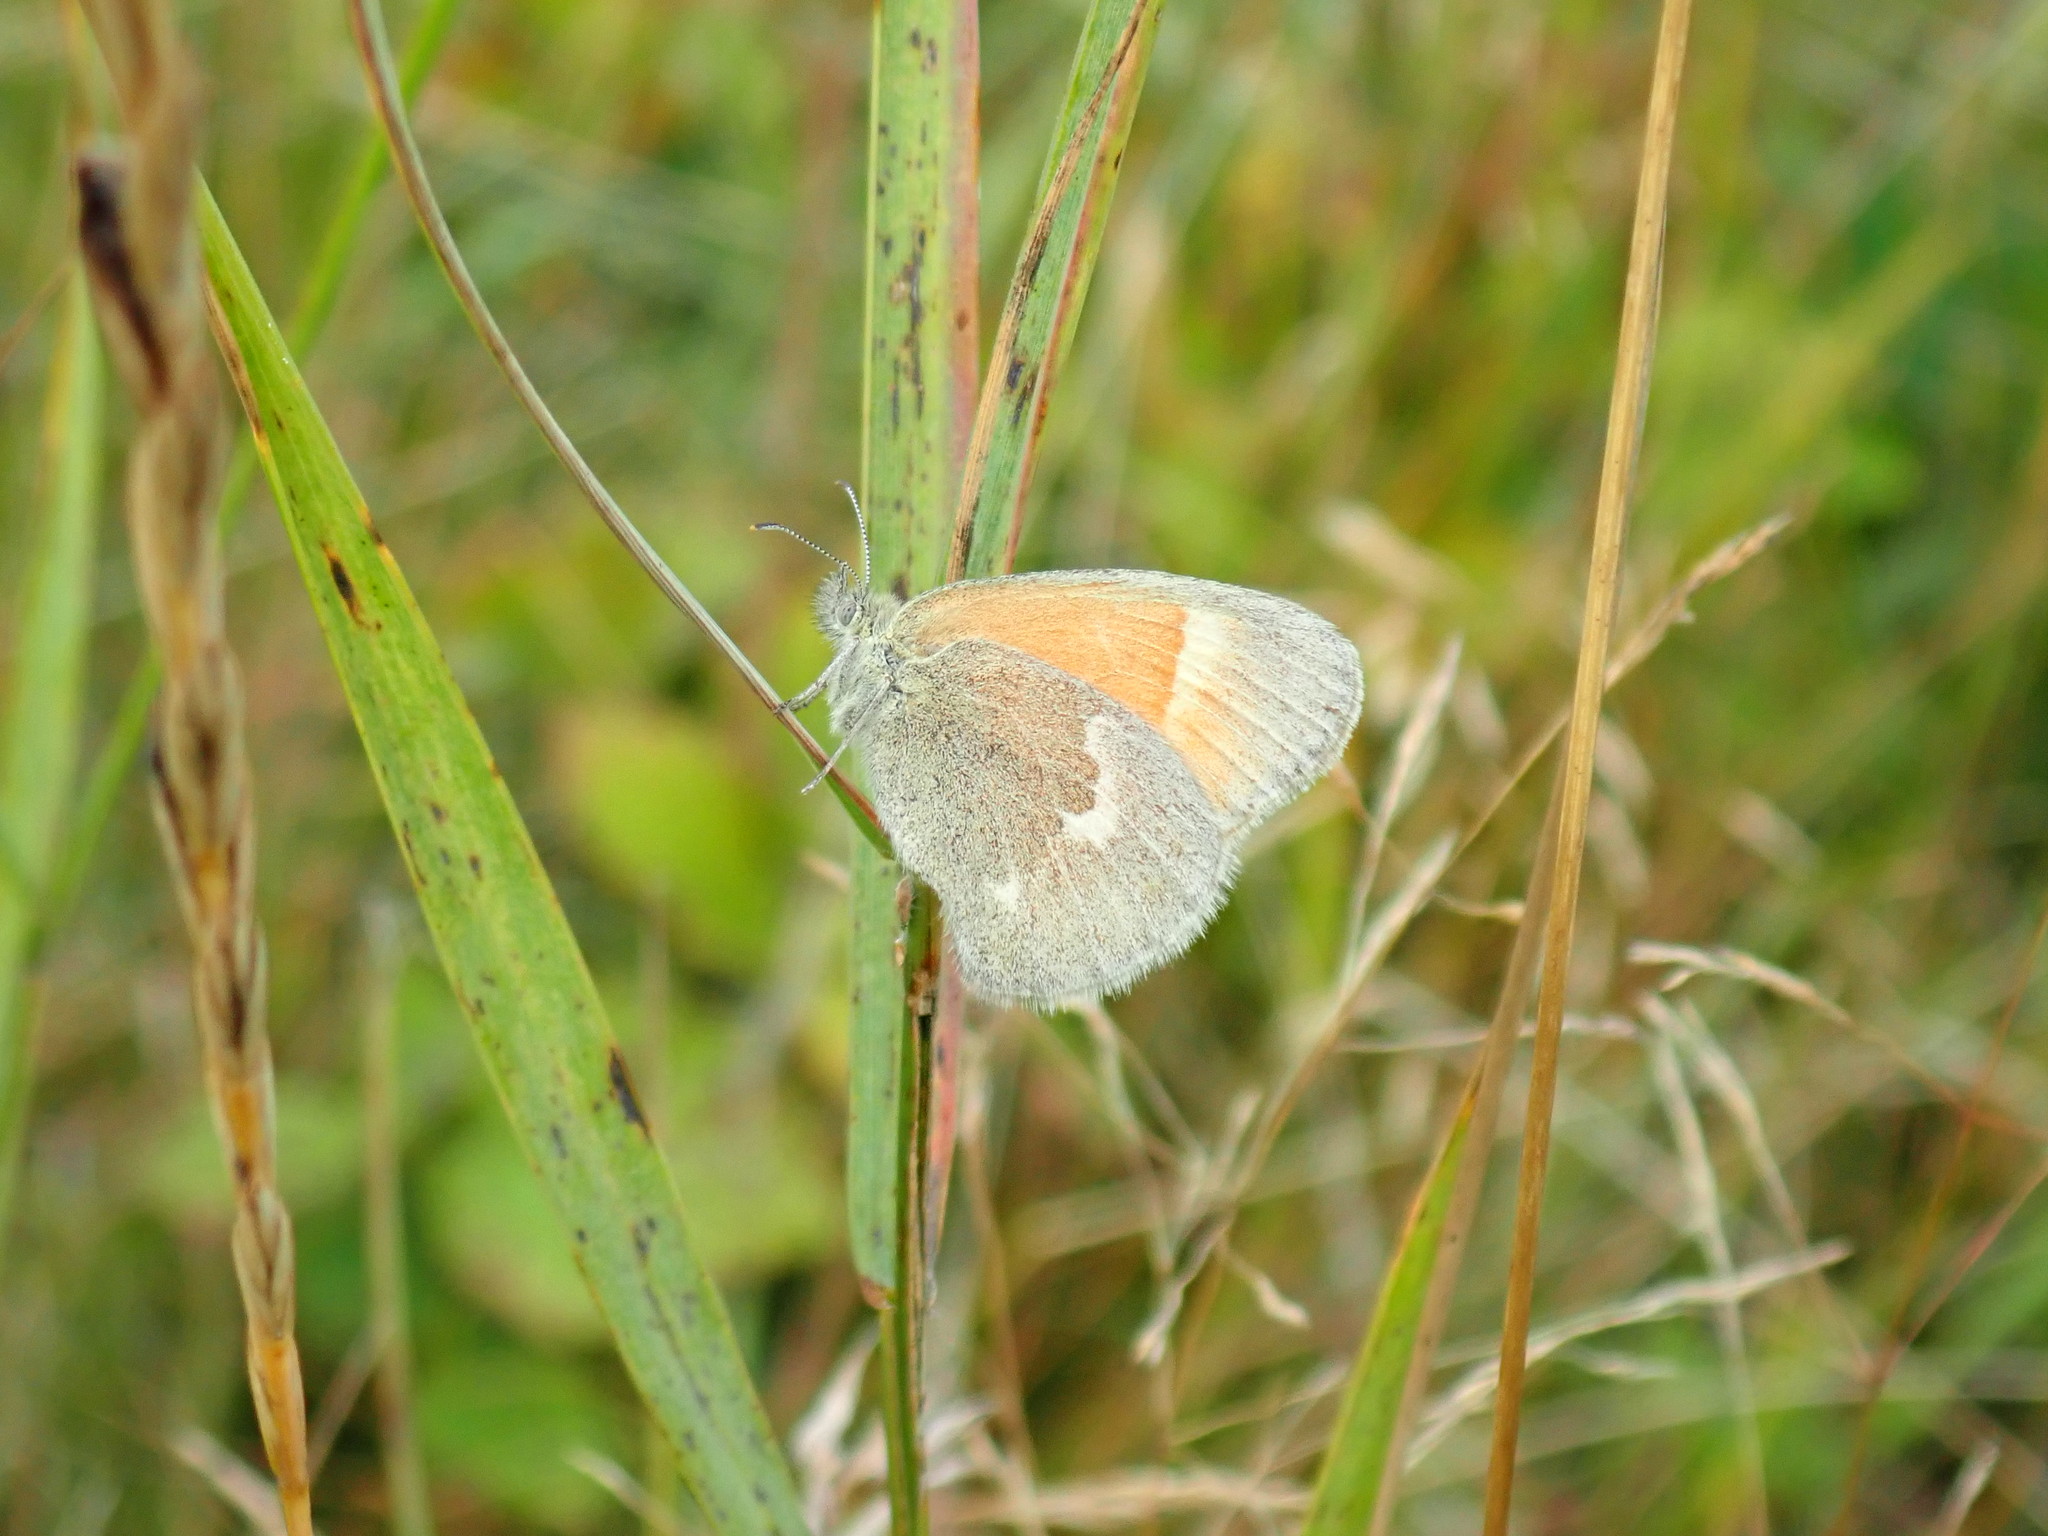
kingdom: Animalia
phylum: Arthropoda
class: Insecta
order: Lepidoptera
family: Nymphalidae
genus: Coenonympha
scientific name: Coenonympha california
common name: Common ringlet
